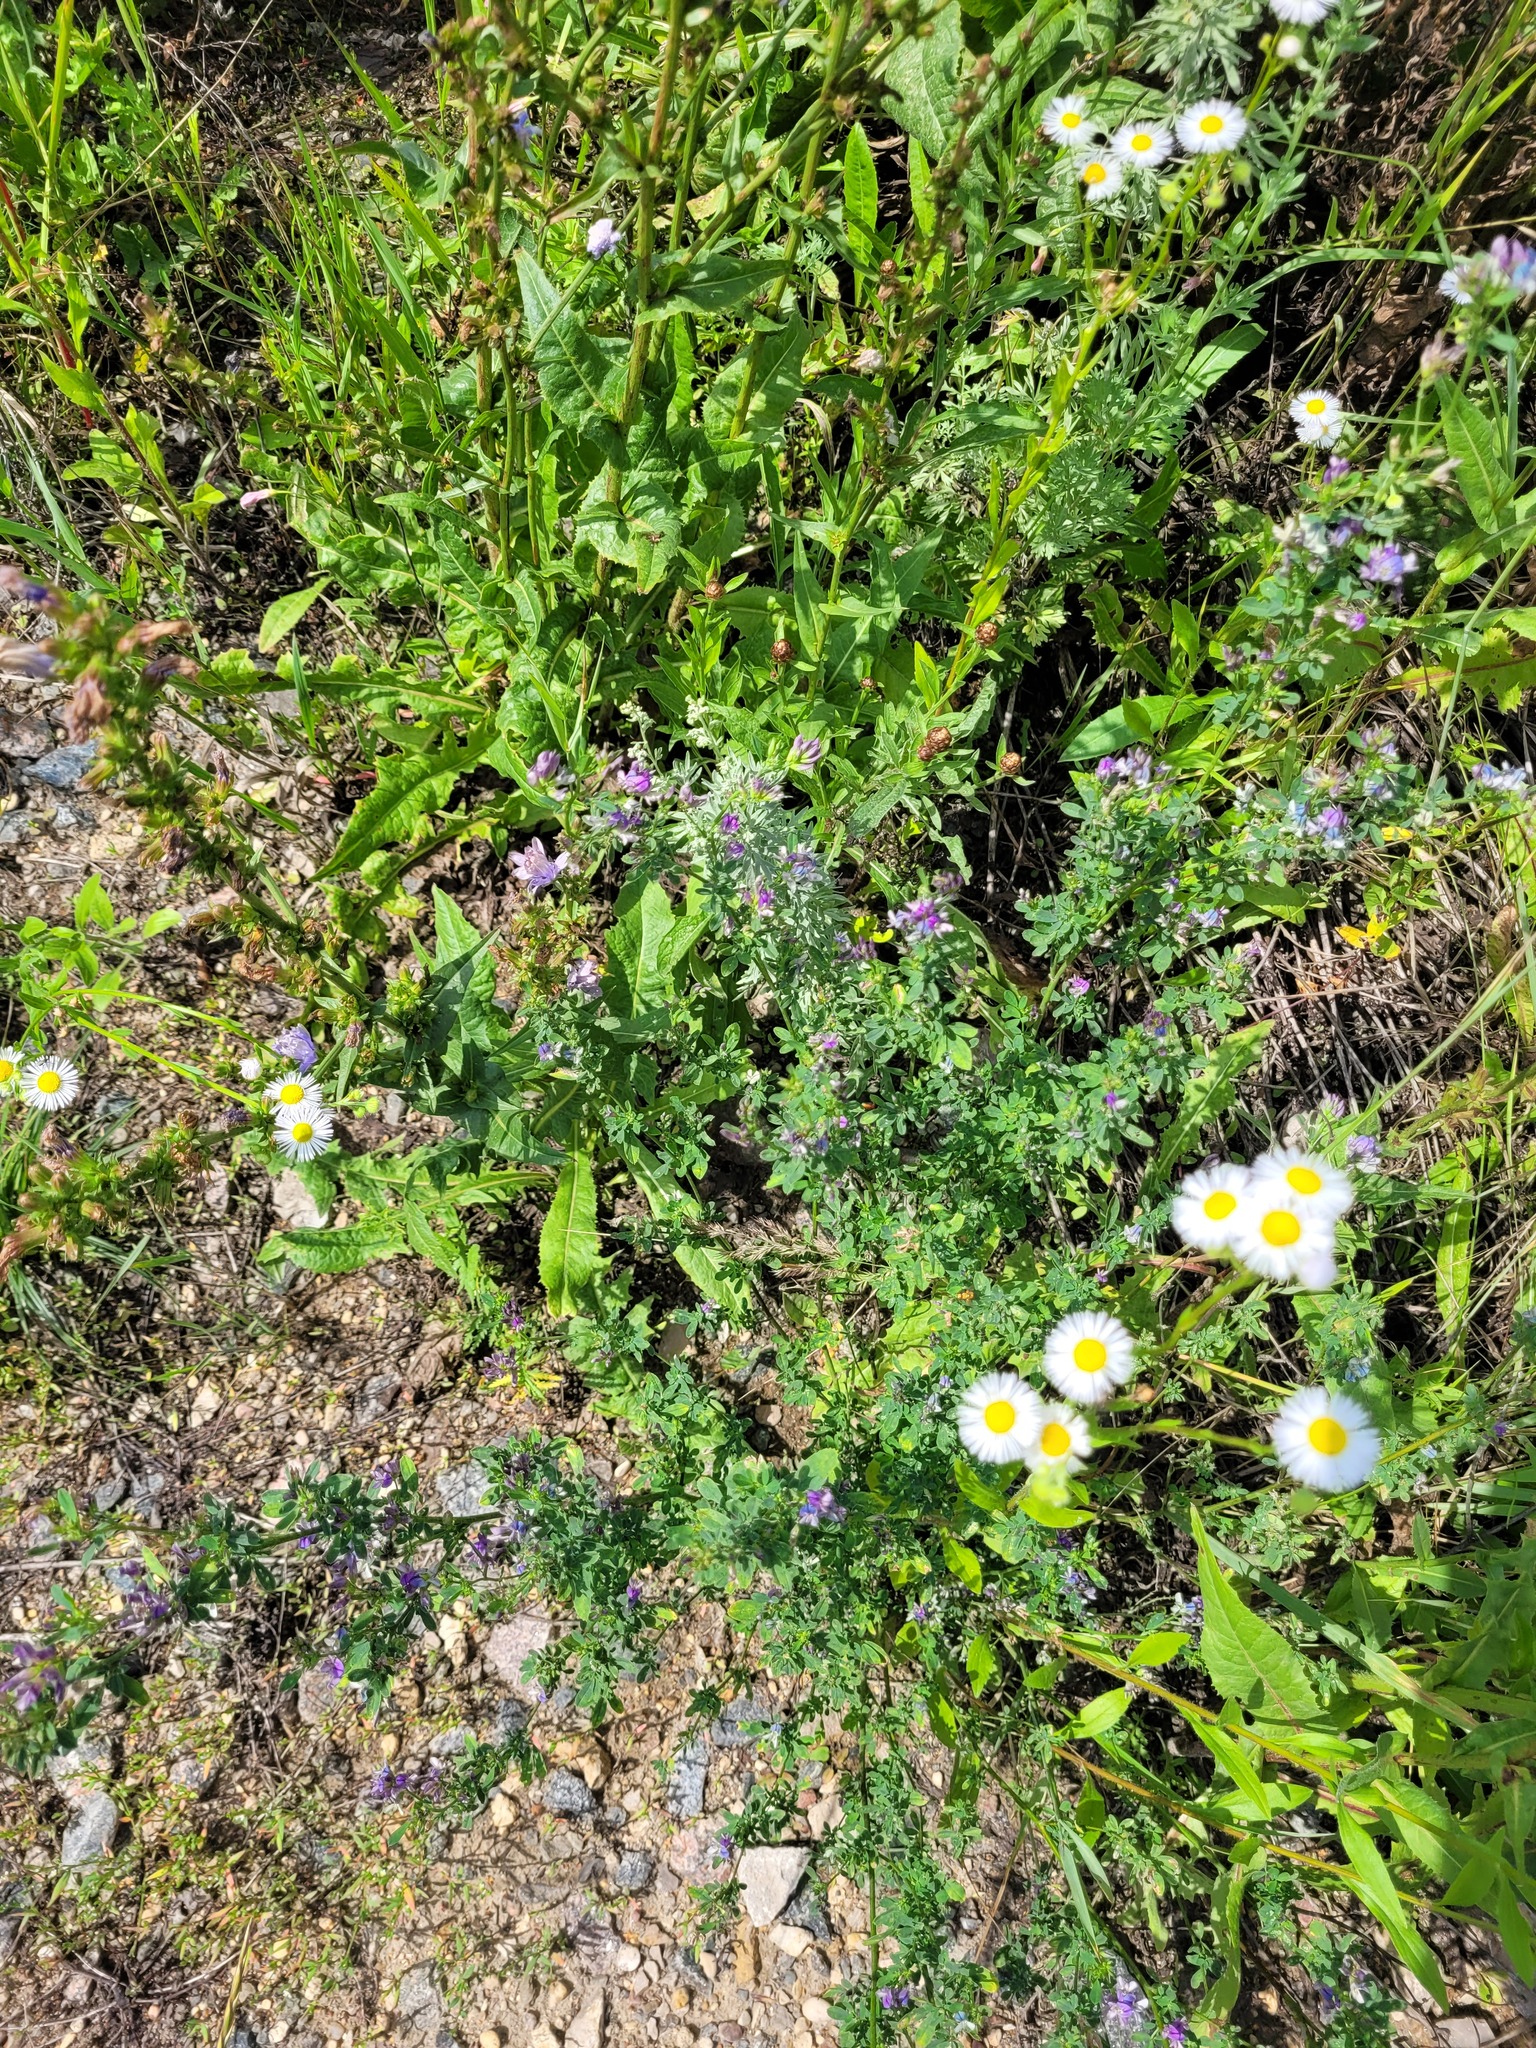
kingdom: Plantae
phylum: Tracheophyta
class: Magnoliopsida
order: Fabales
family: Fabaceae
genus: Medicago
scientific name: Medicago varia
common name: Sand lucerne
